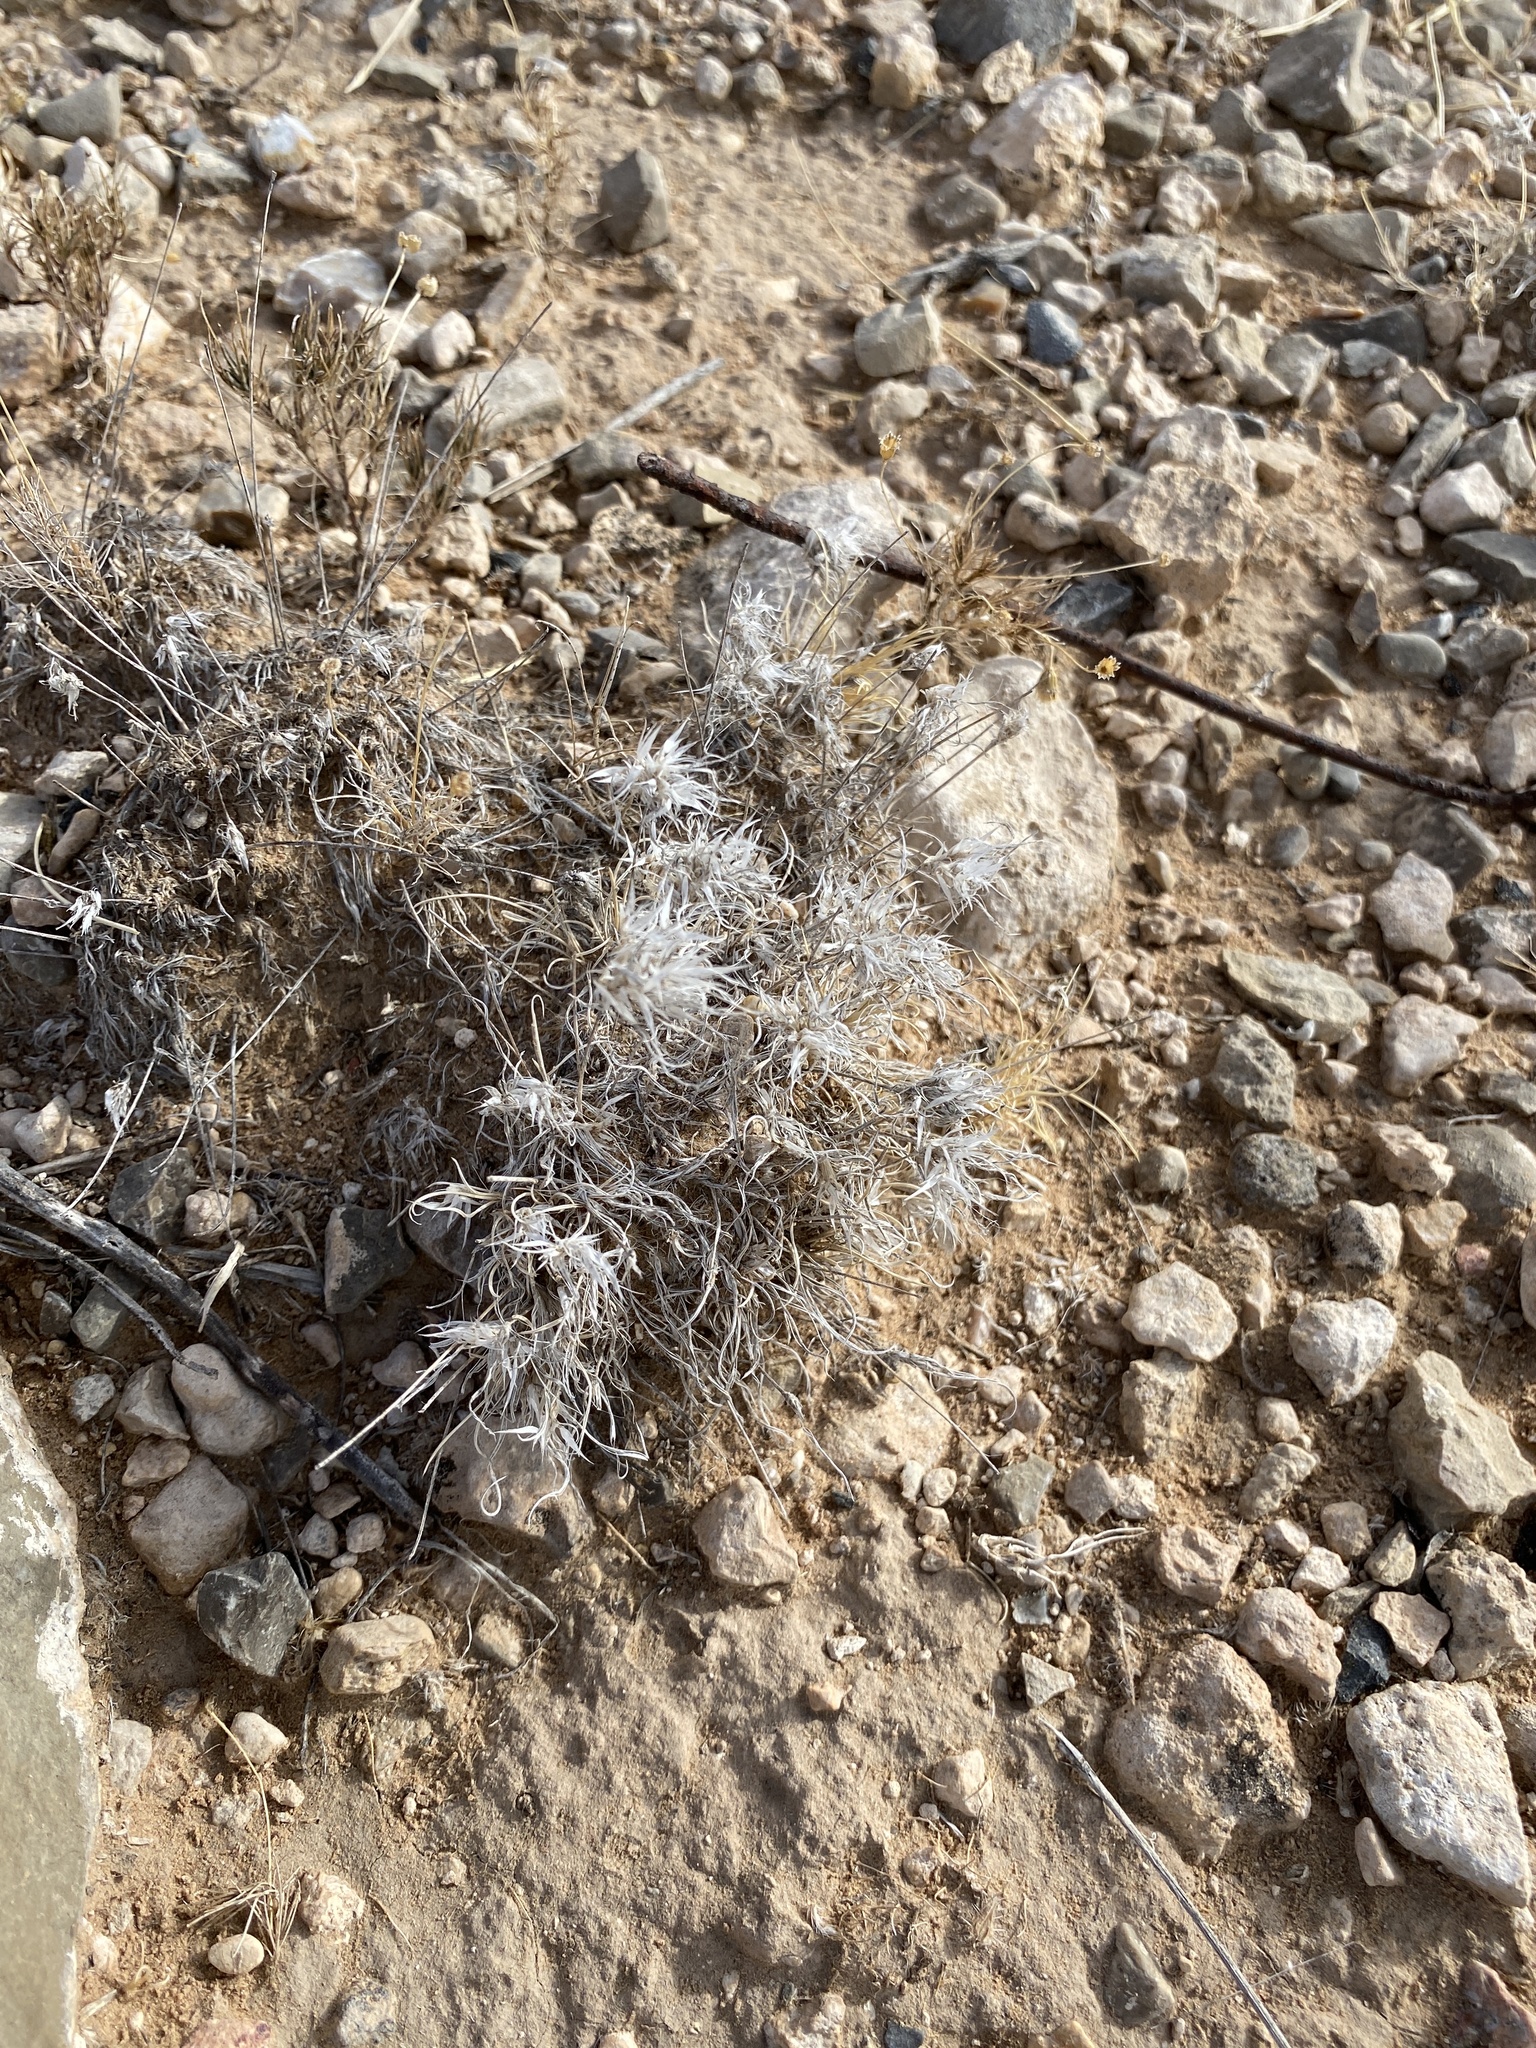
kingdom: Plantae
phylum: Tracheophyta
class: Liliopsida
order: Poales
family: Poaceae
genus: Dasyochloa
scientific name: Dasyochloa pulchella
